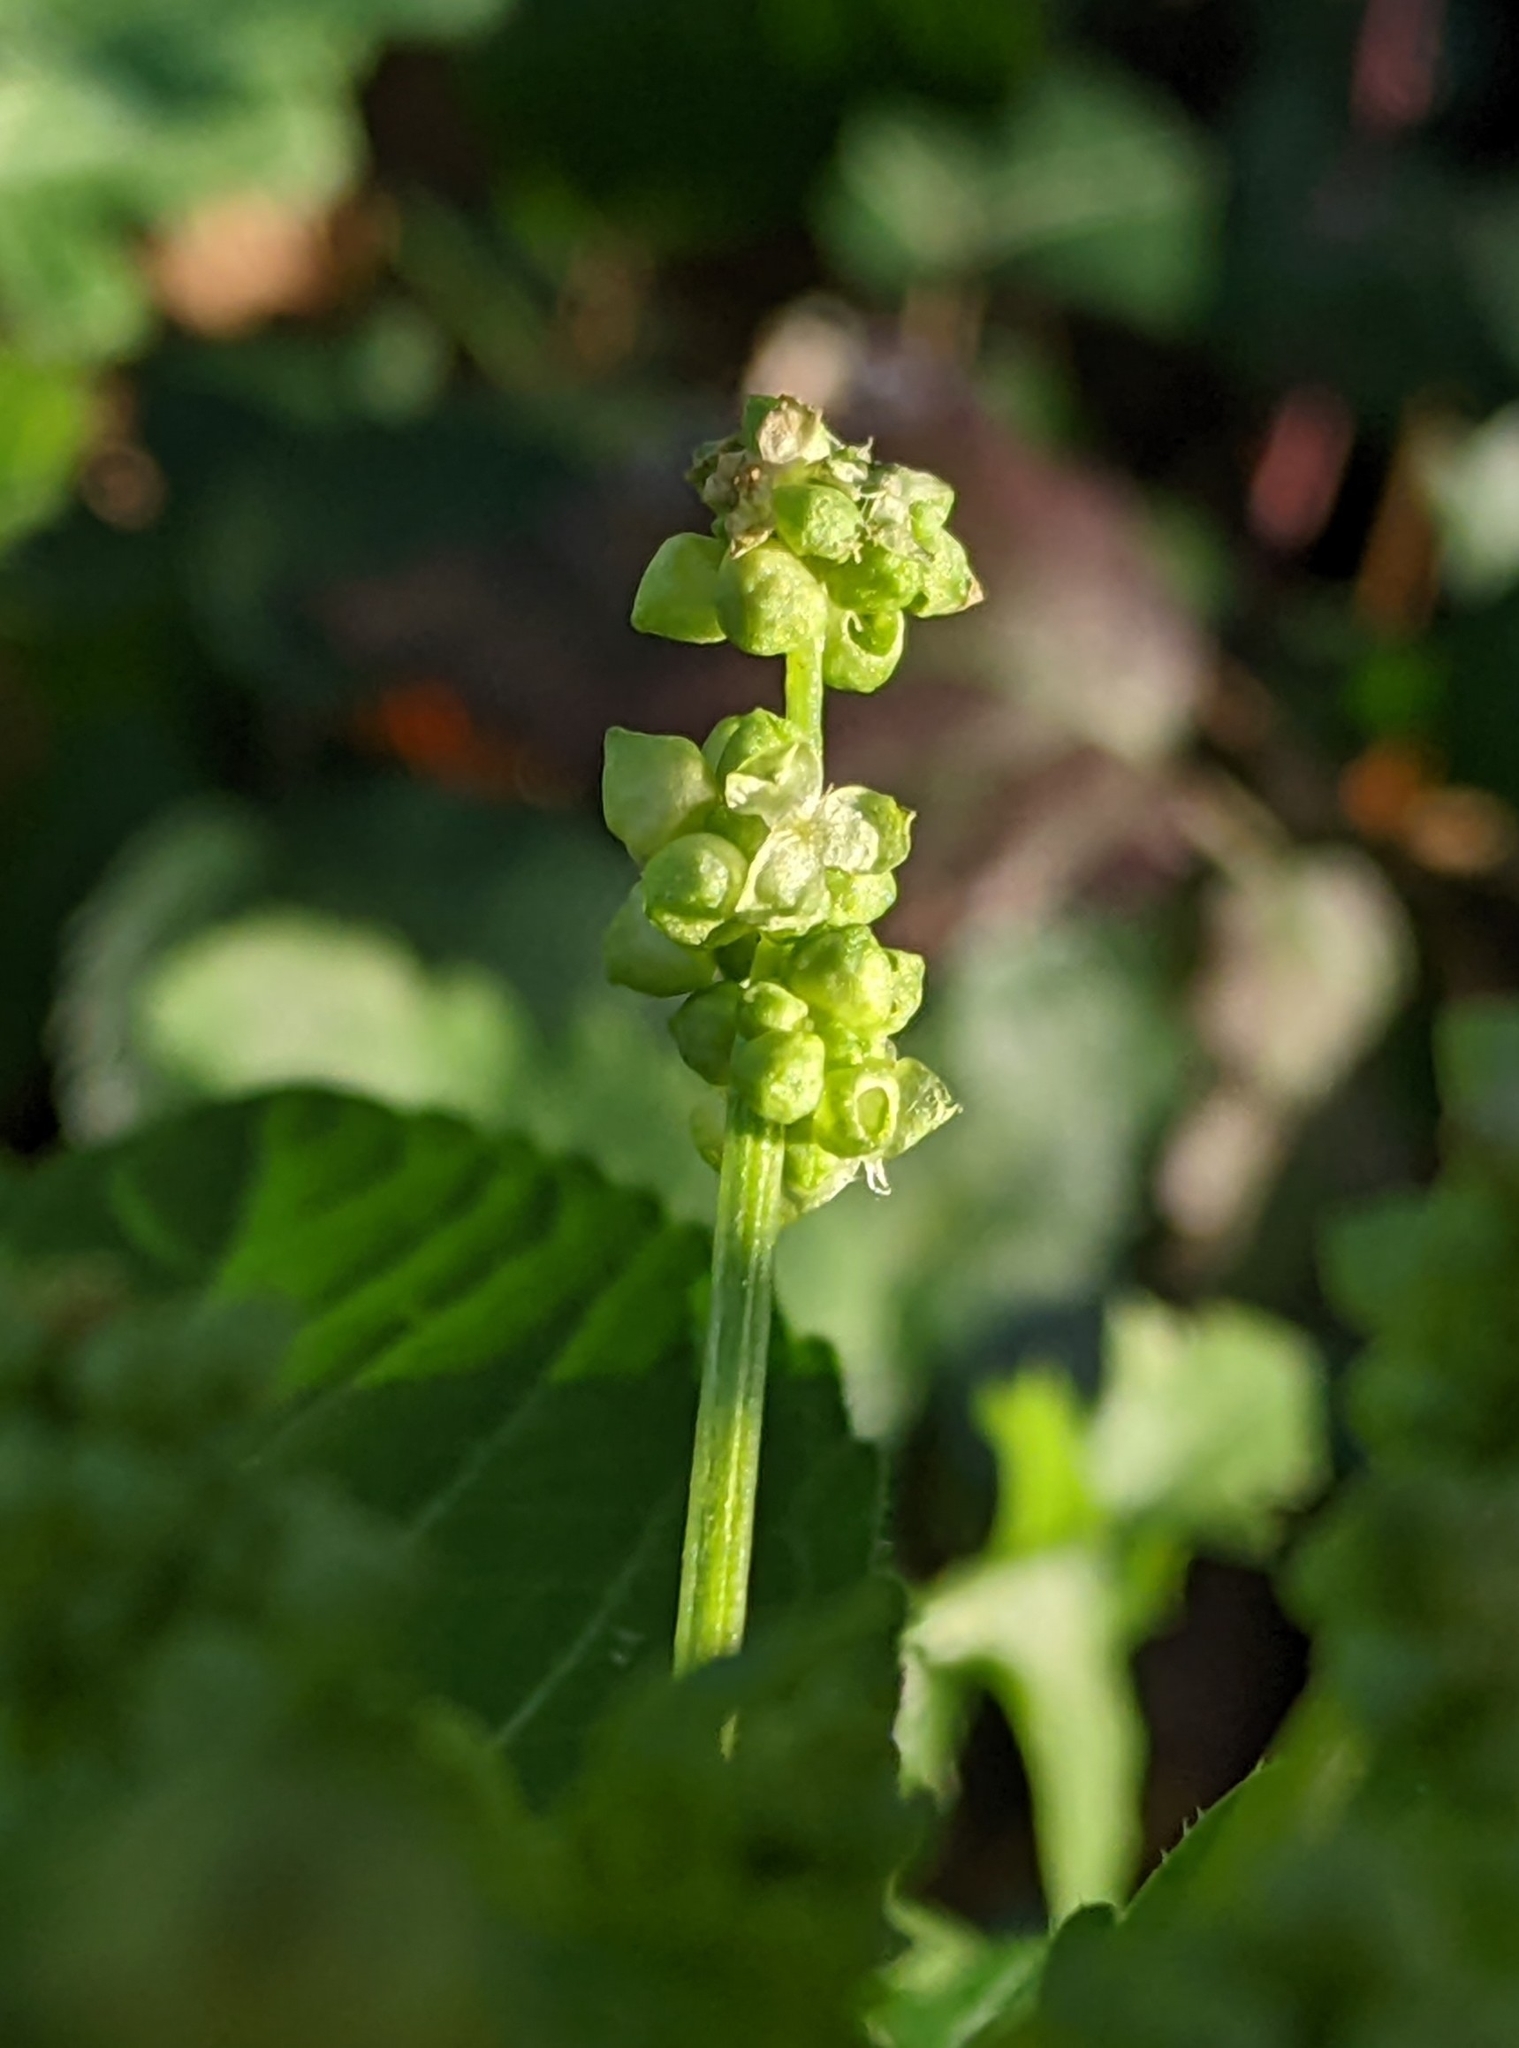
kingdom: Plantae
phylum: Tracheophyta
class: Magnoliopsida
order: Malpighiales
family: Euphorbiaceae
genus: Mercurialis
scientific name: Mercurialis annua
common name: Annual mercury
